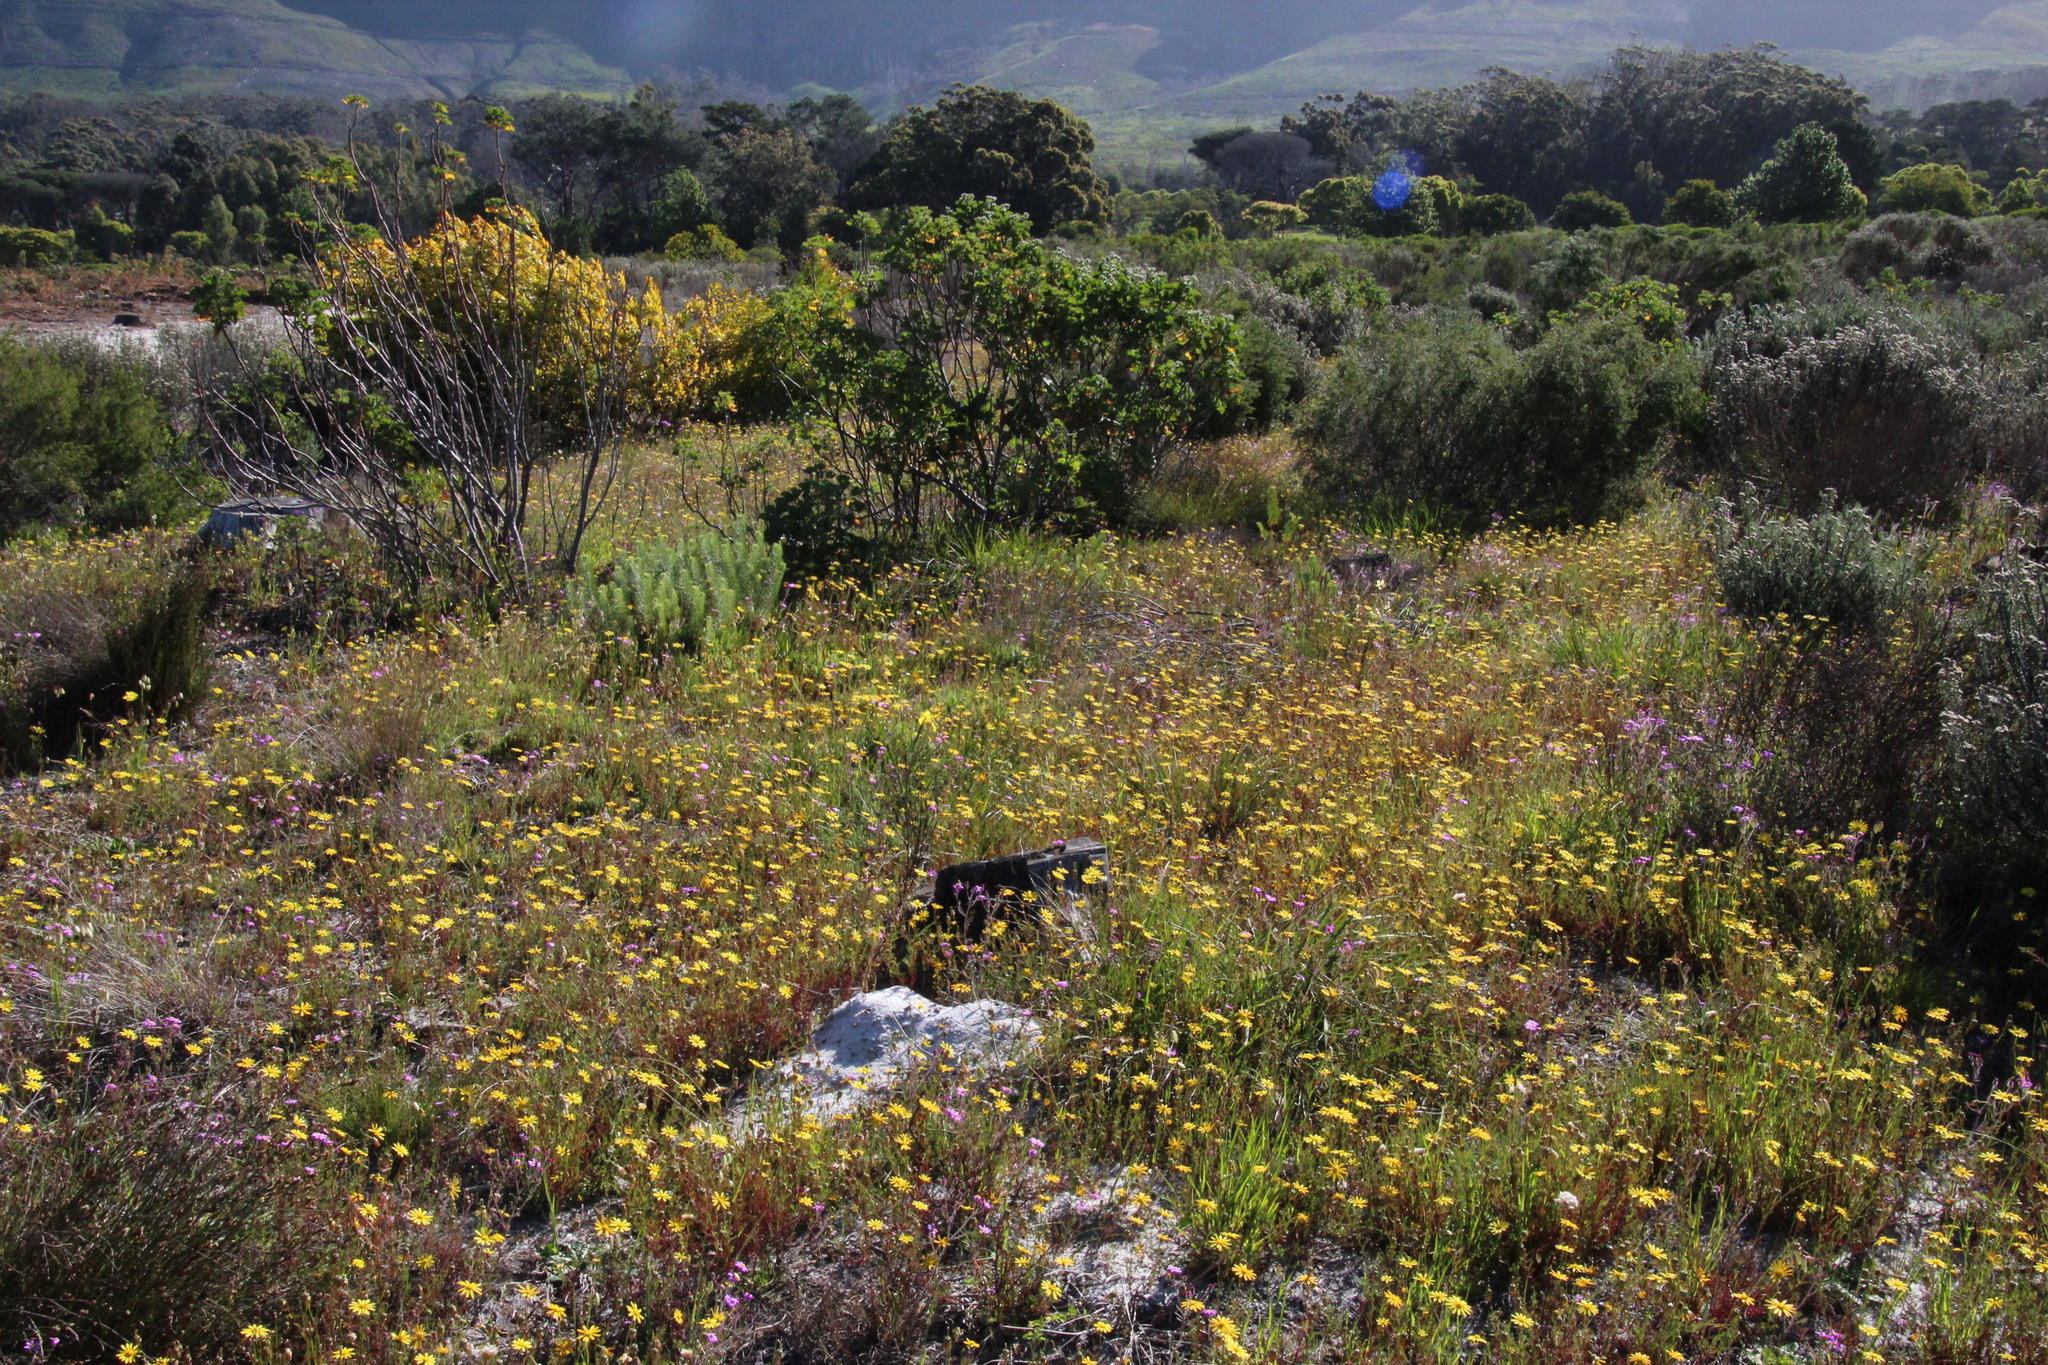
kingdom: Plantae
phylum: Tracheophyta
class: Magnoliopsida
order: Asterales
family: Asteraceae
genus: Ursinia
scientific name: Ursinia anthemoides
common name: Ursinia
